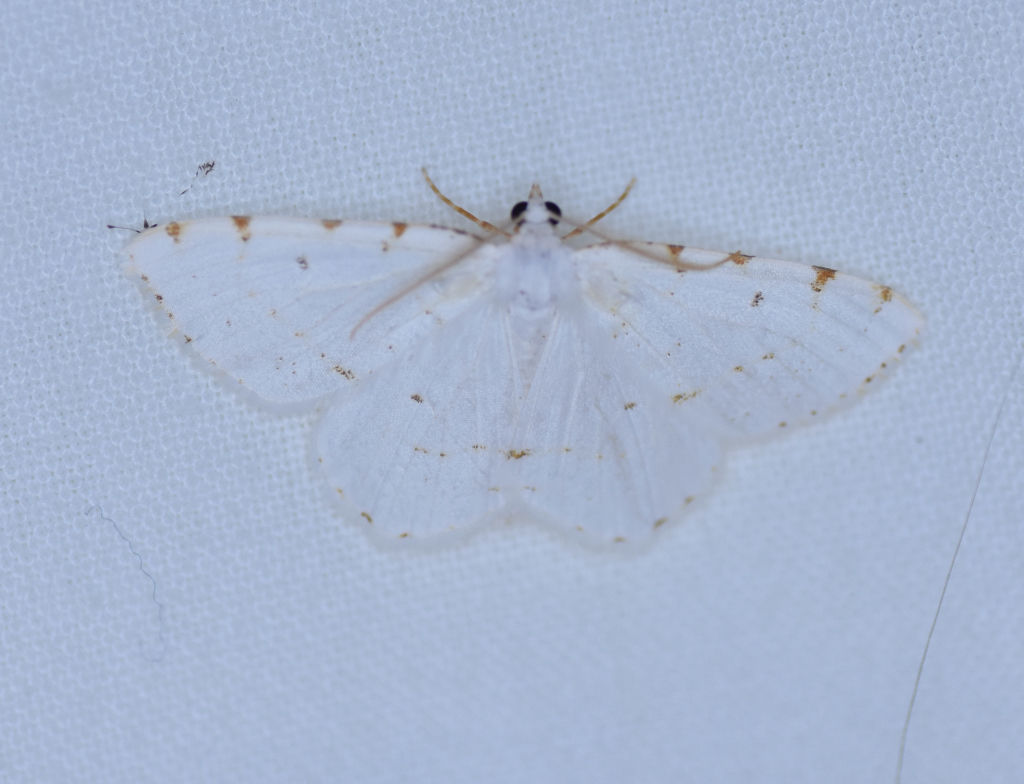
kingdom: Animalia
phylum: Arthropoda
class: Insecta
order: Lepidoptera
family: Geometridae
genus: Macaria
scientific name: Macaria pustularia
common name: Lesser maple spanworm moth
